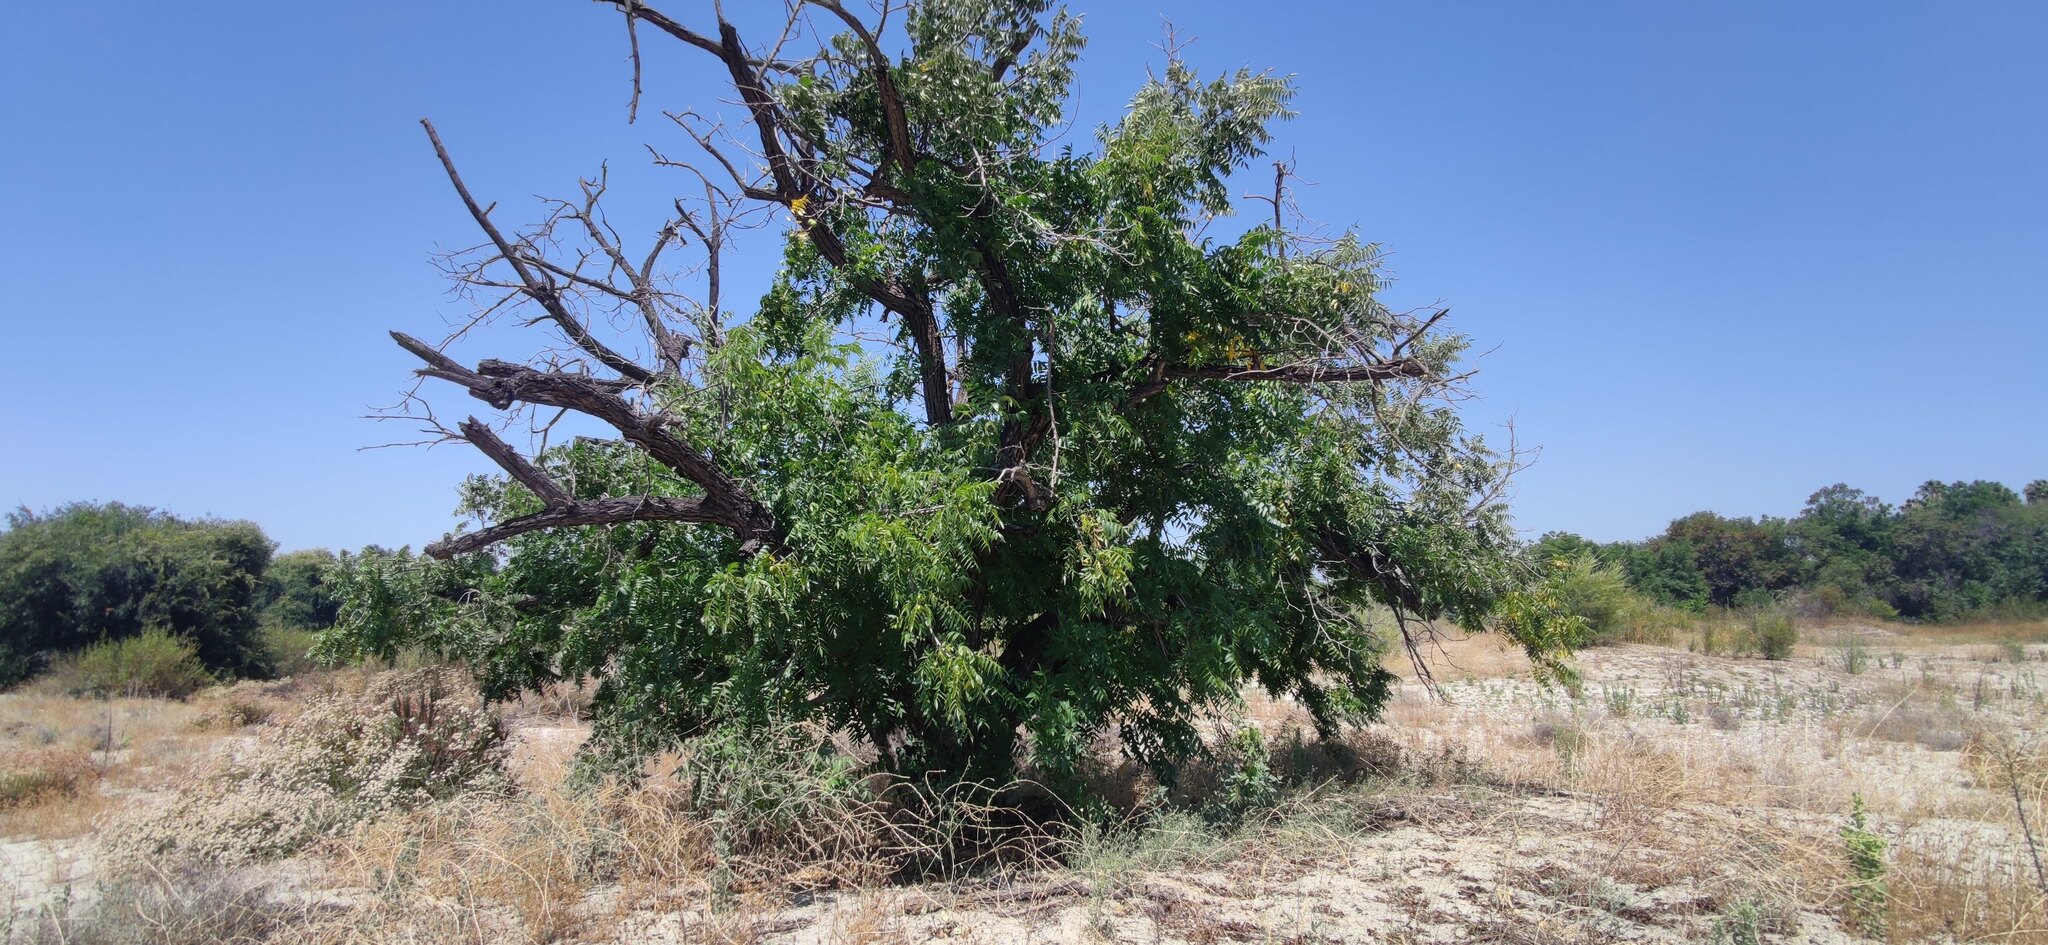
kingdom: Plantae
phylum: Tracheophyta
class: Magnoliopsida
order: Fagales
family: Juglandaceae
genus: Juglans
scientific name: Juglans californica
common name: Southern california black walnut
